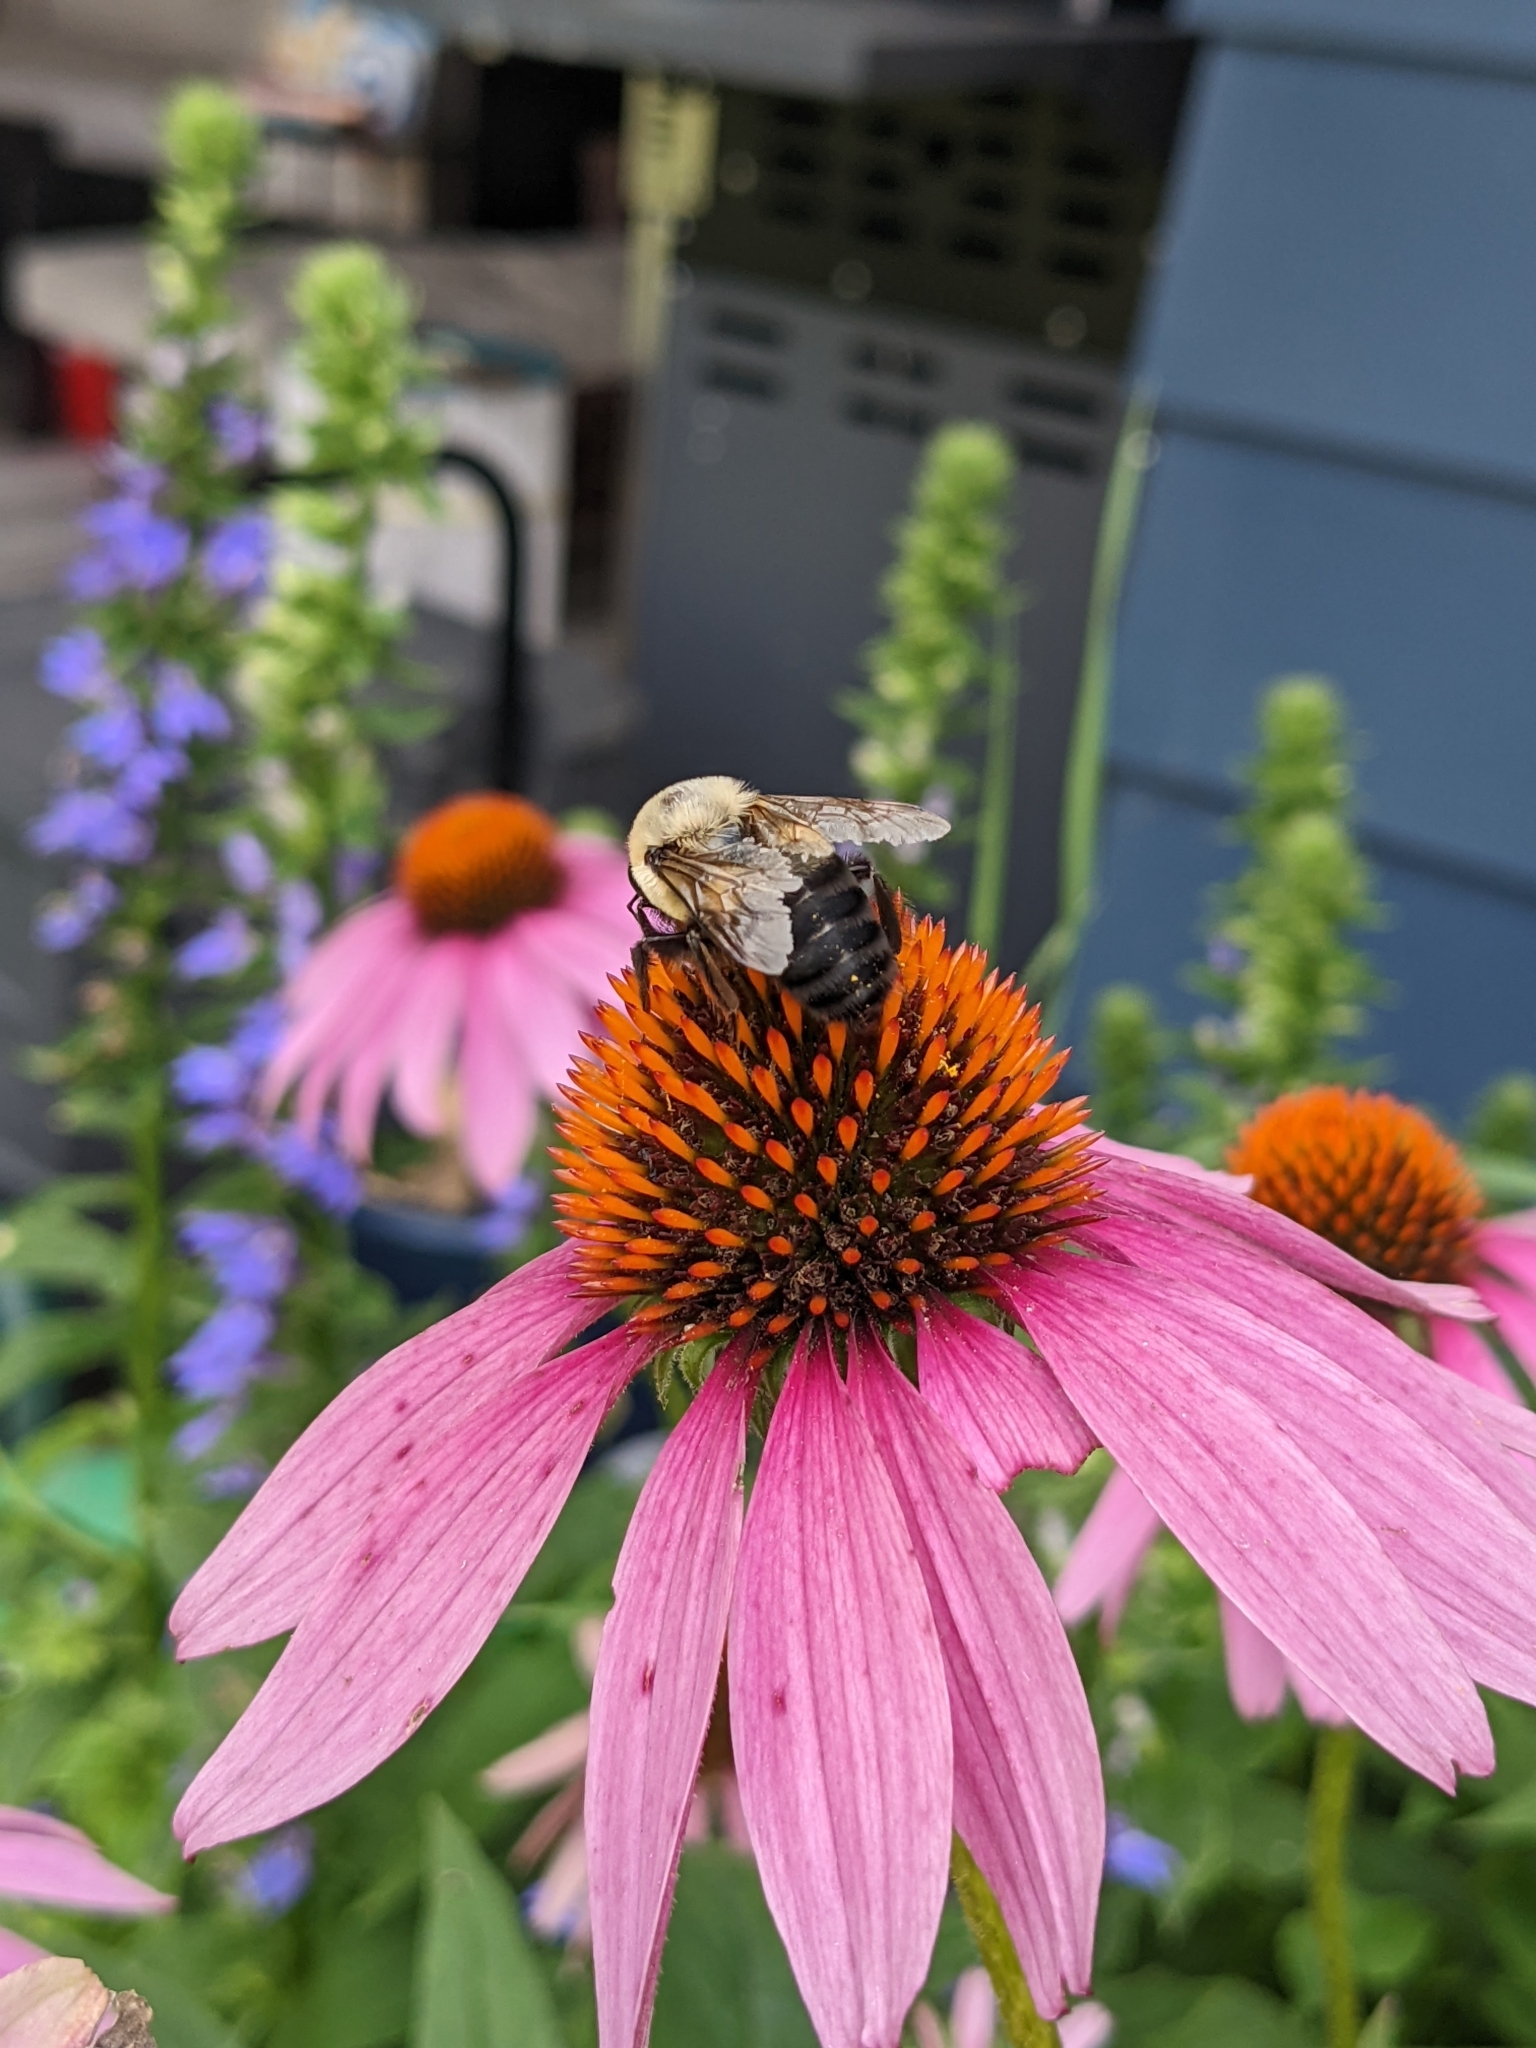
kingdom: Animalia
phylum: Arthropoda
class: Insecta
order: Hymenoptera
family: Apidae
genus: Bombus
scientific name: Bombus griseocollis
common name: Brown-belted bumble bee
